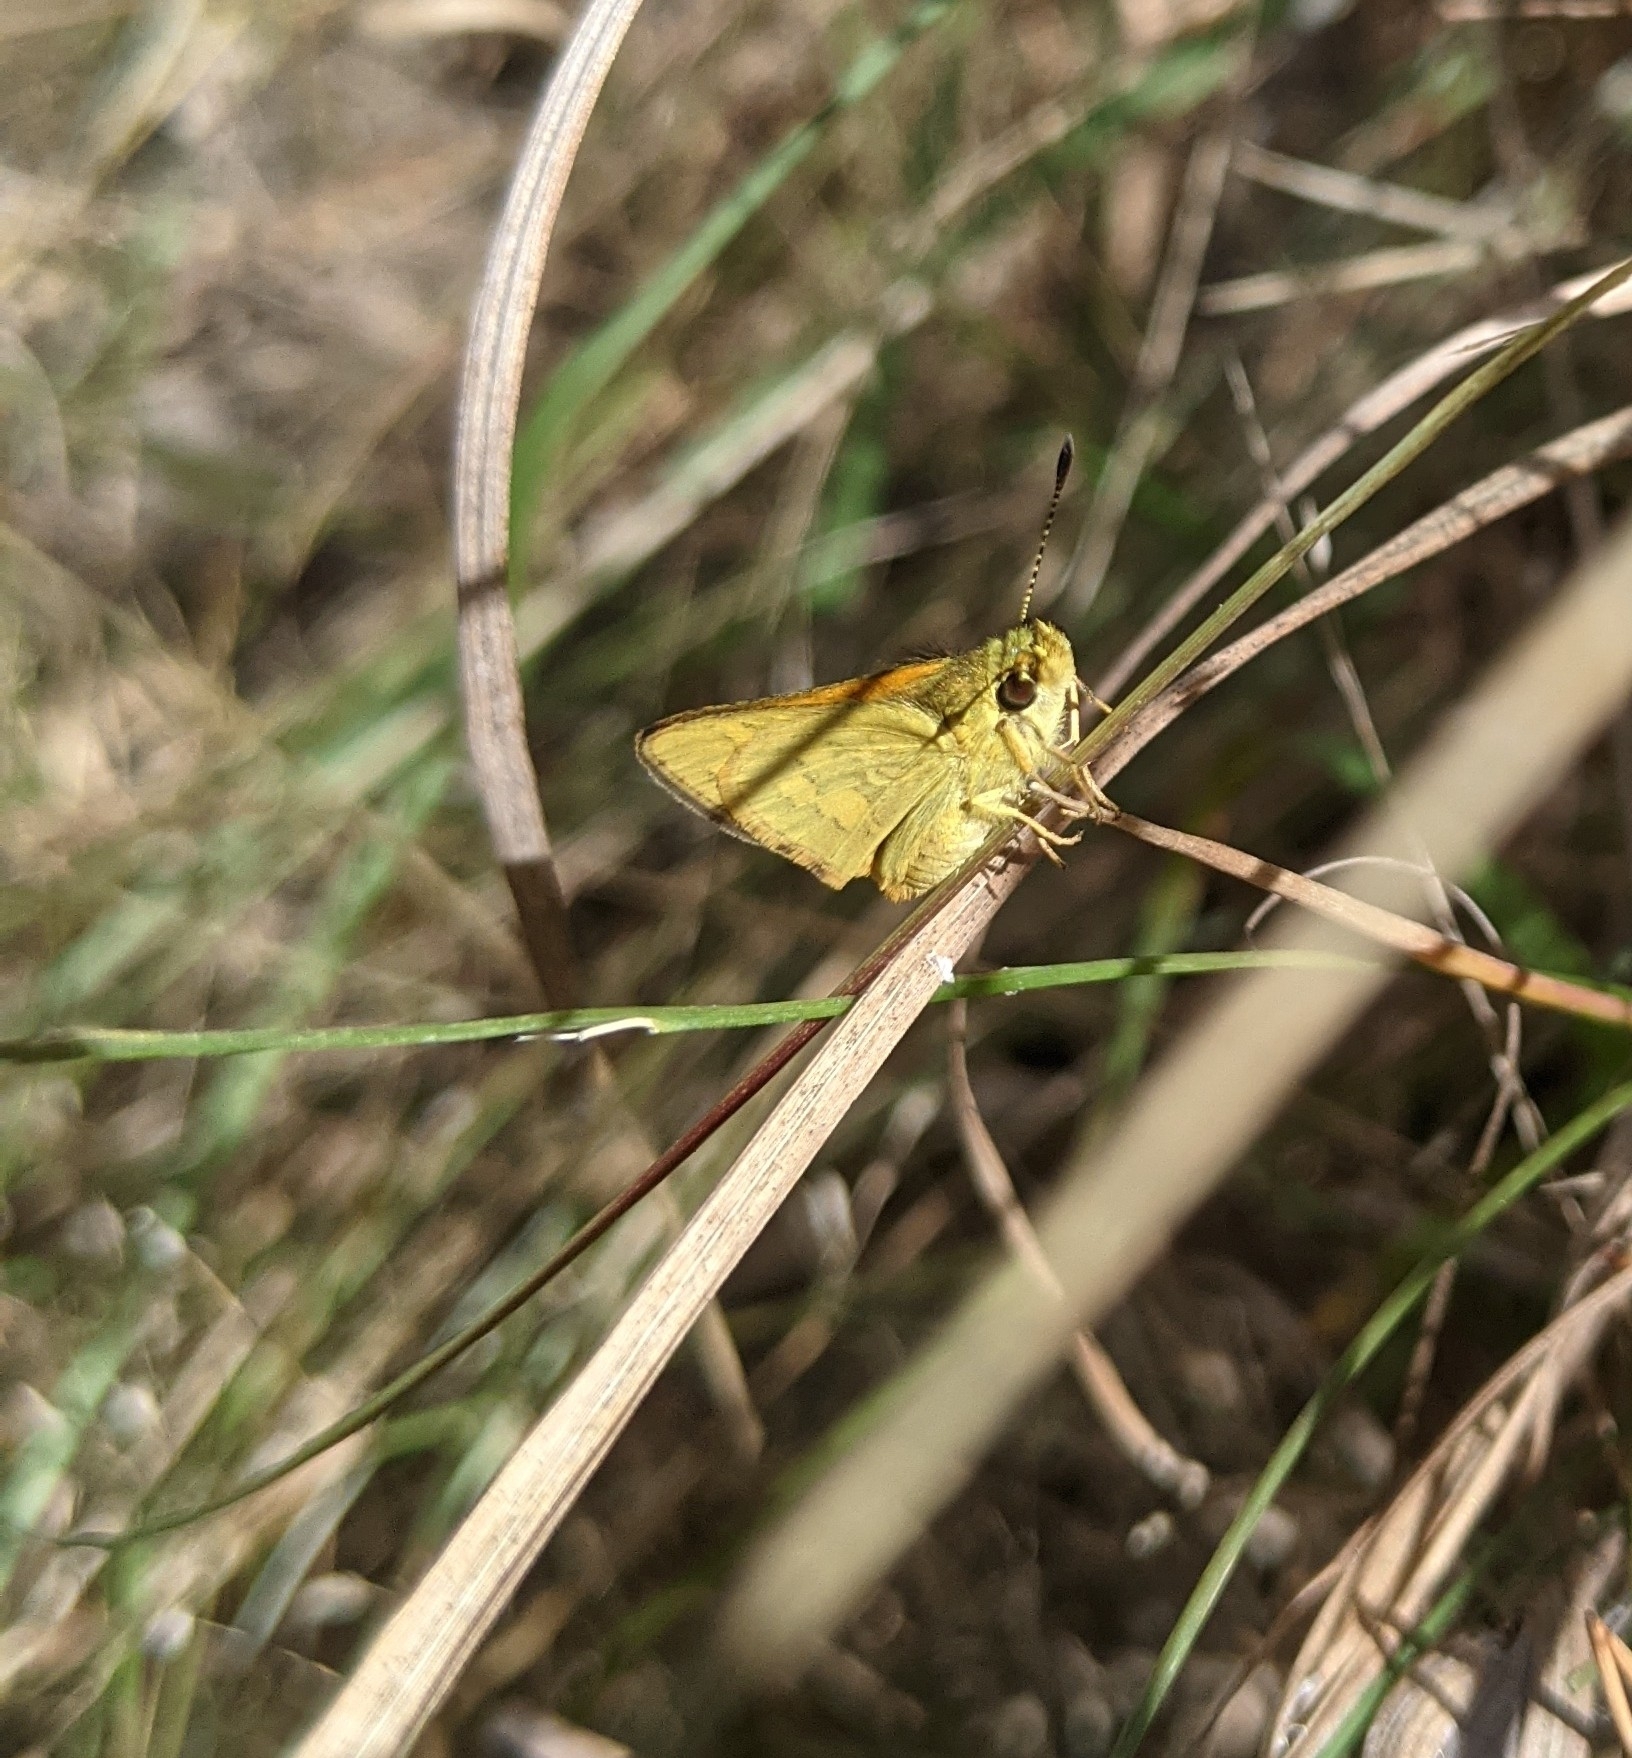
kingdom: Animalia
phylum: Arthropoda
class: Insecta
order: Lepidoptera
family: Hesperiidae
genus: Ocybadistes
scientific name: Ocybadistes walkeri
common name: Yellow-banded dart
